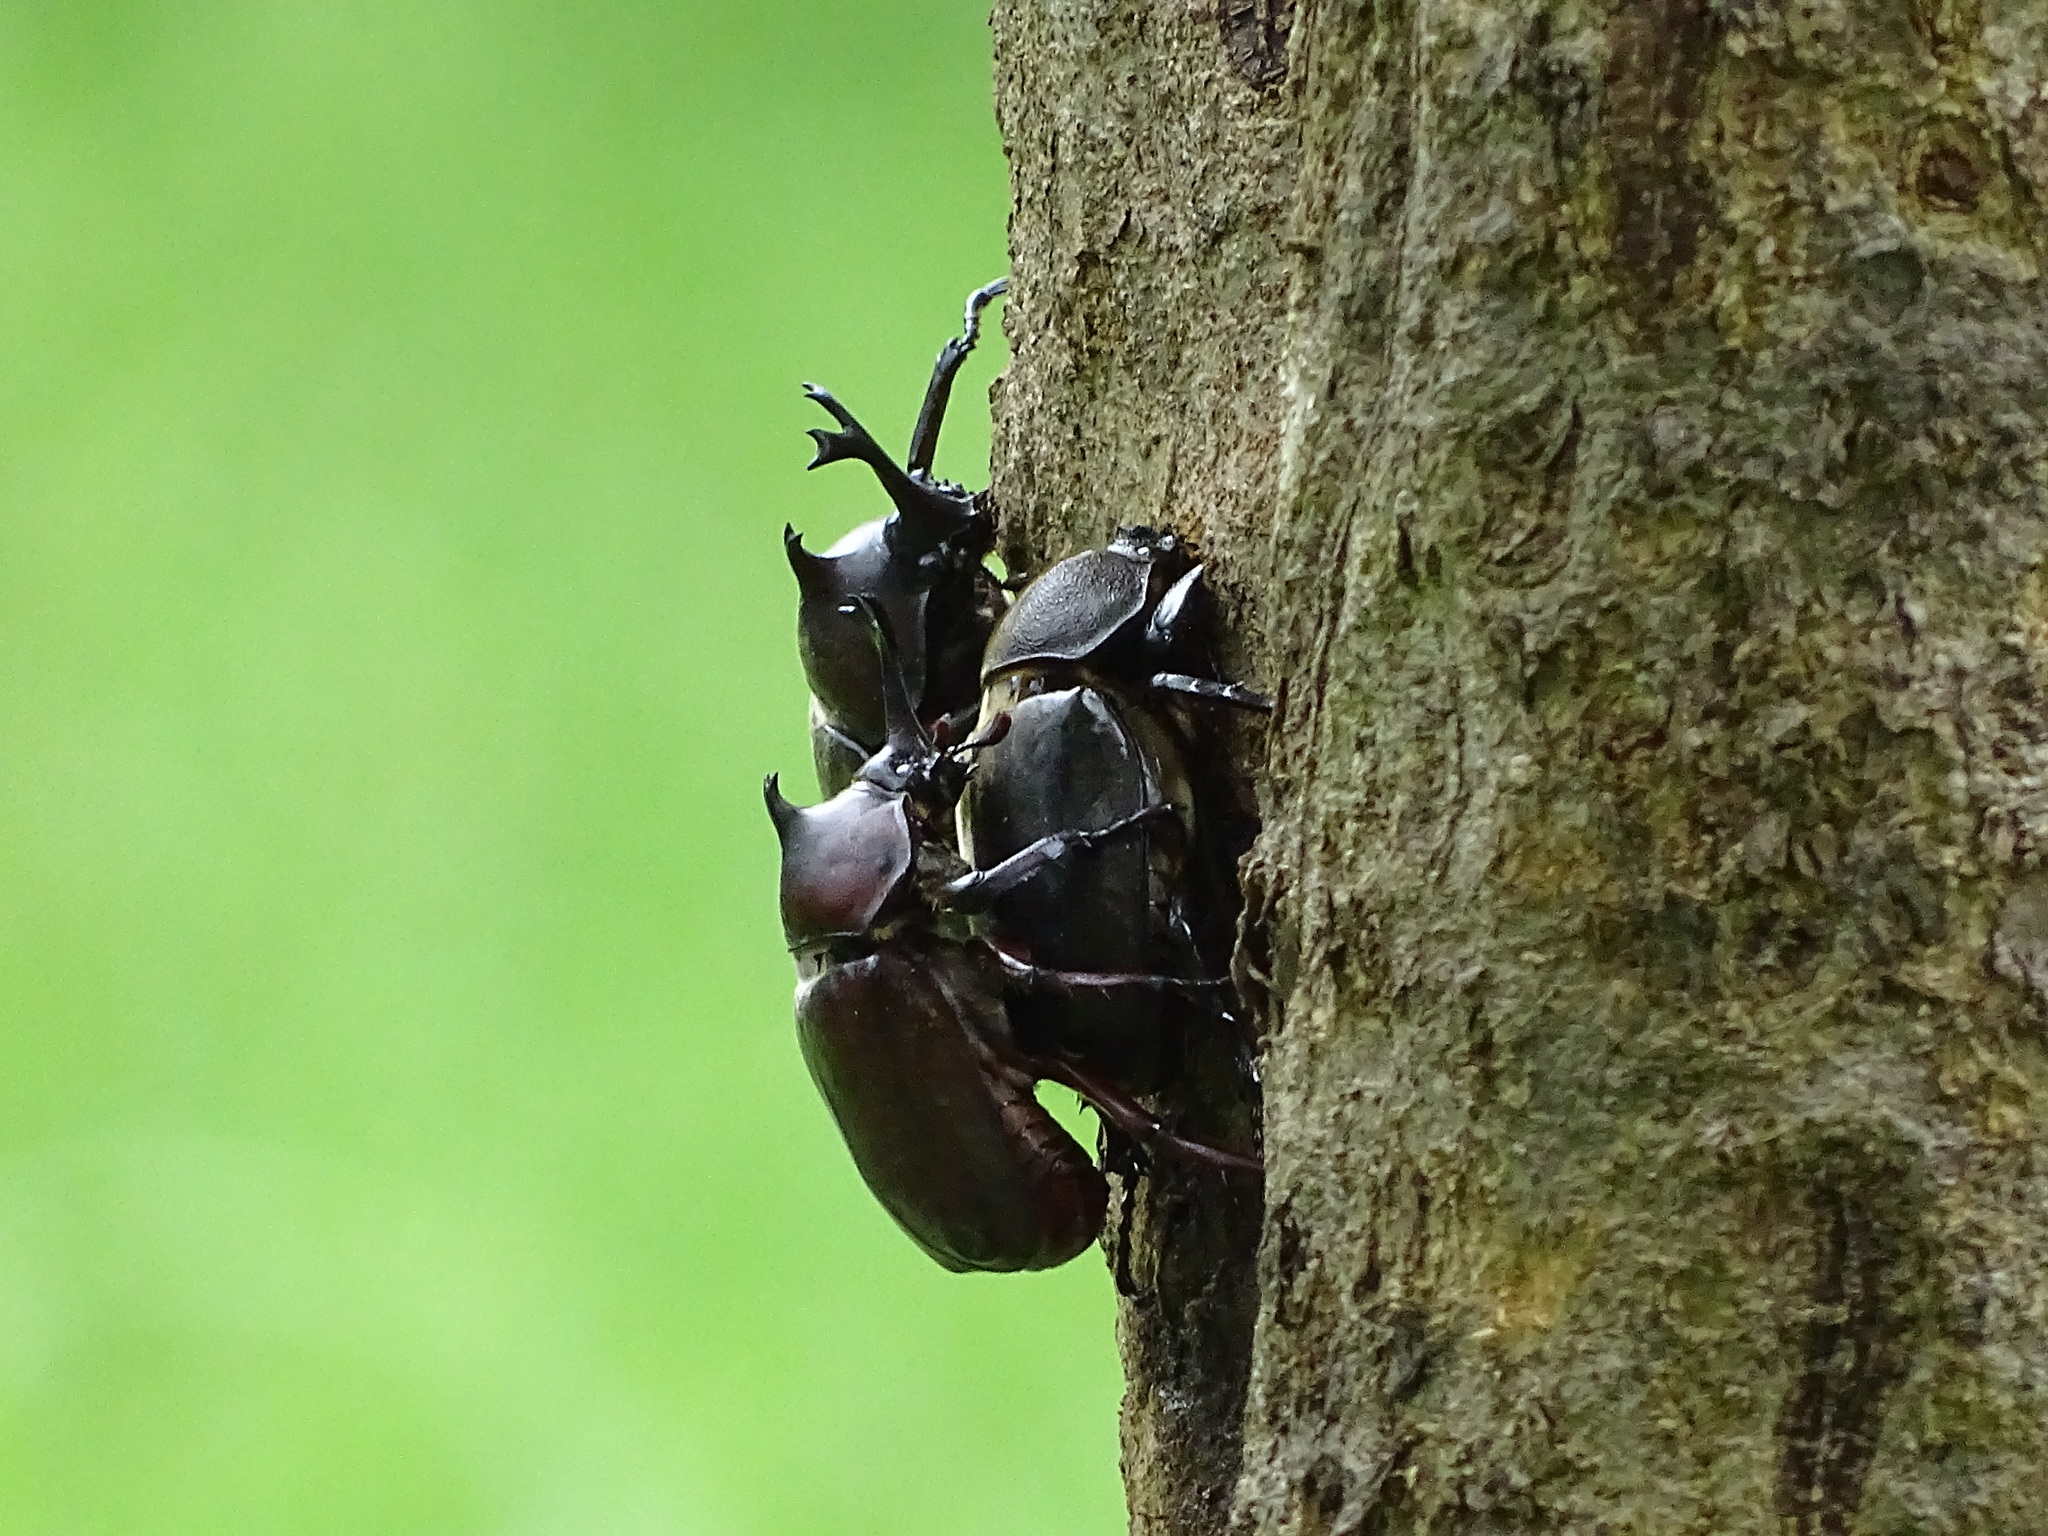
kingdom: Animalia
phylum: Arthropoda
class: Insecta
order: Coleoptera
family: Scarabaeidae
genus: Trypoxylus
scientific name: Trypoxylus dichotomus
